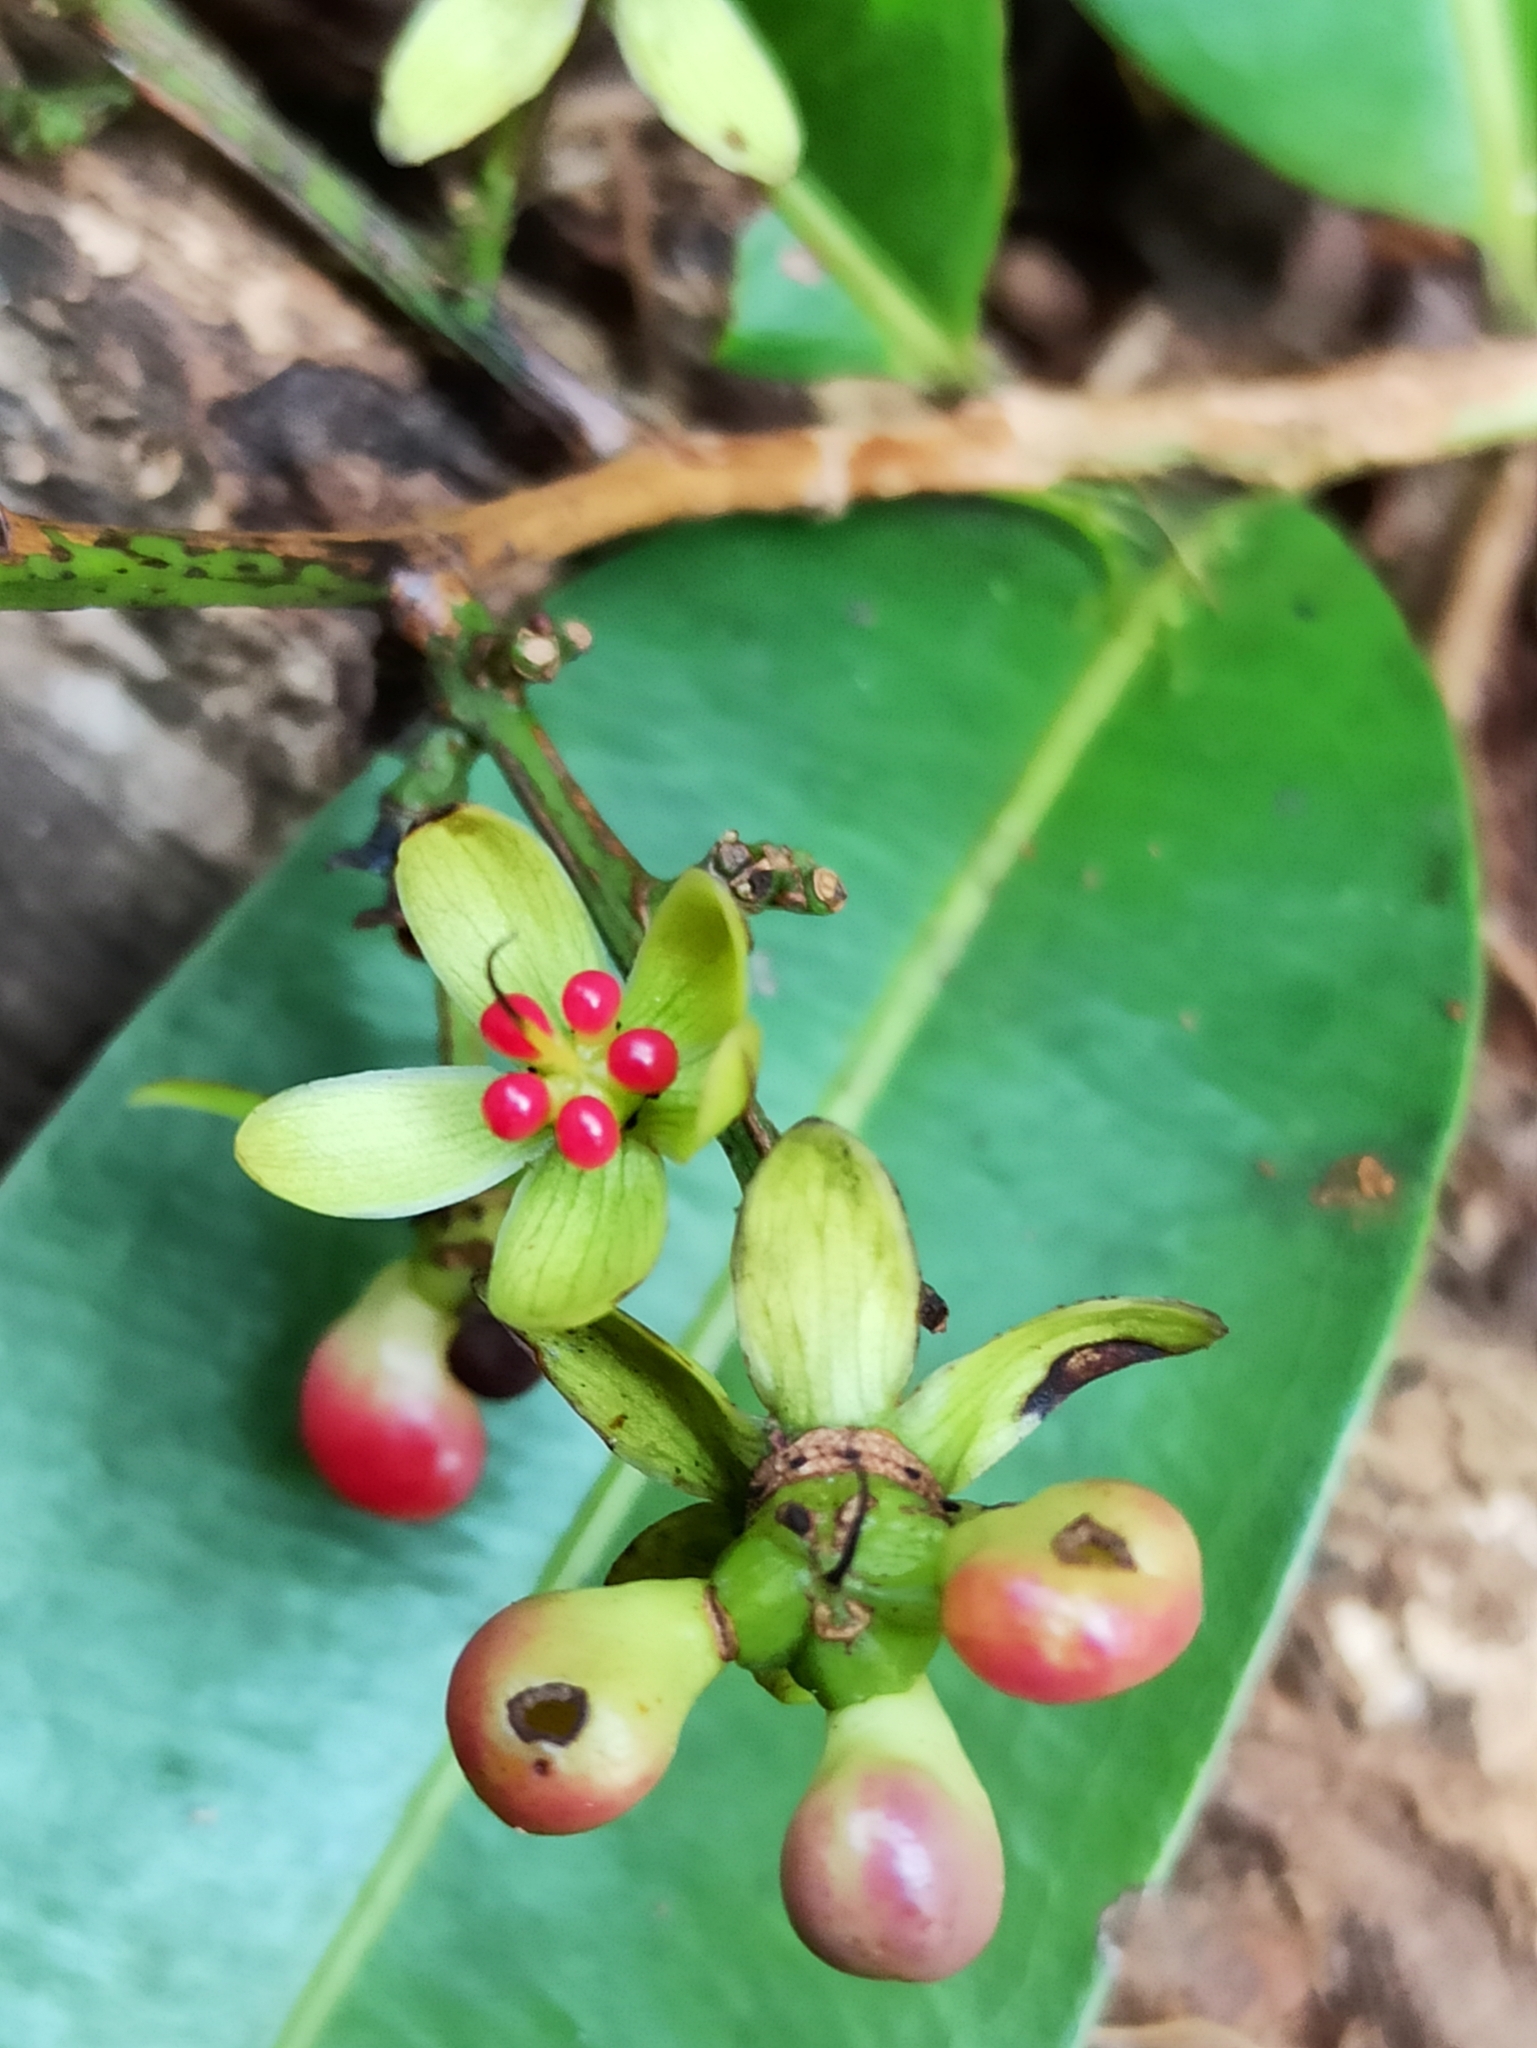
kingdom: Plantae
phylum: Tracheophyta
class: Magnoliopsida
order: Malpighiales
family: Ochnaceae
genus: Gomphia
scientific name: Gomphia serrata
